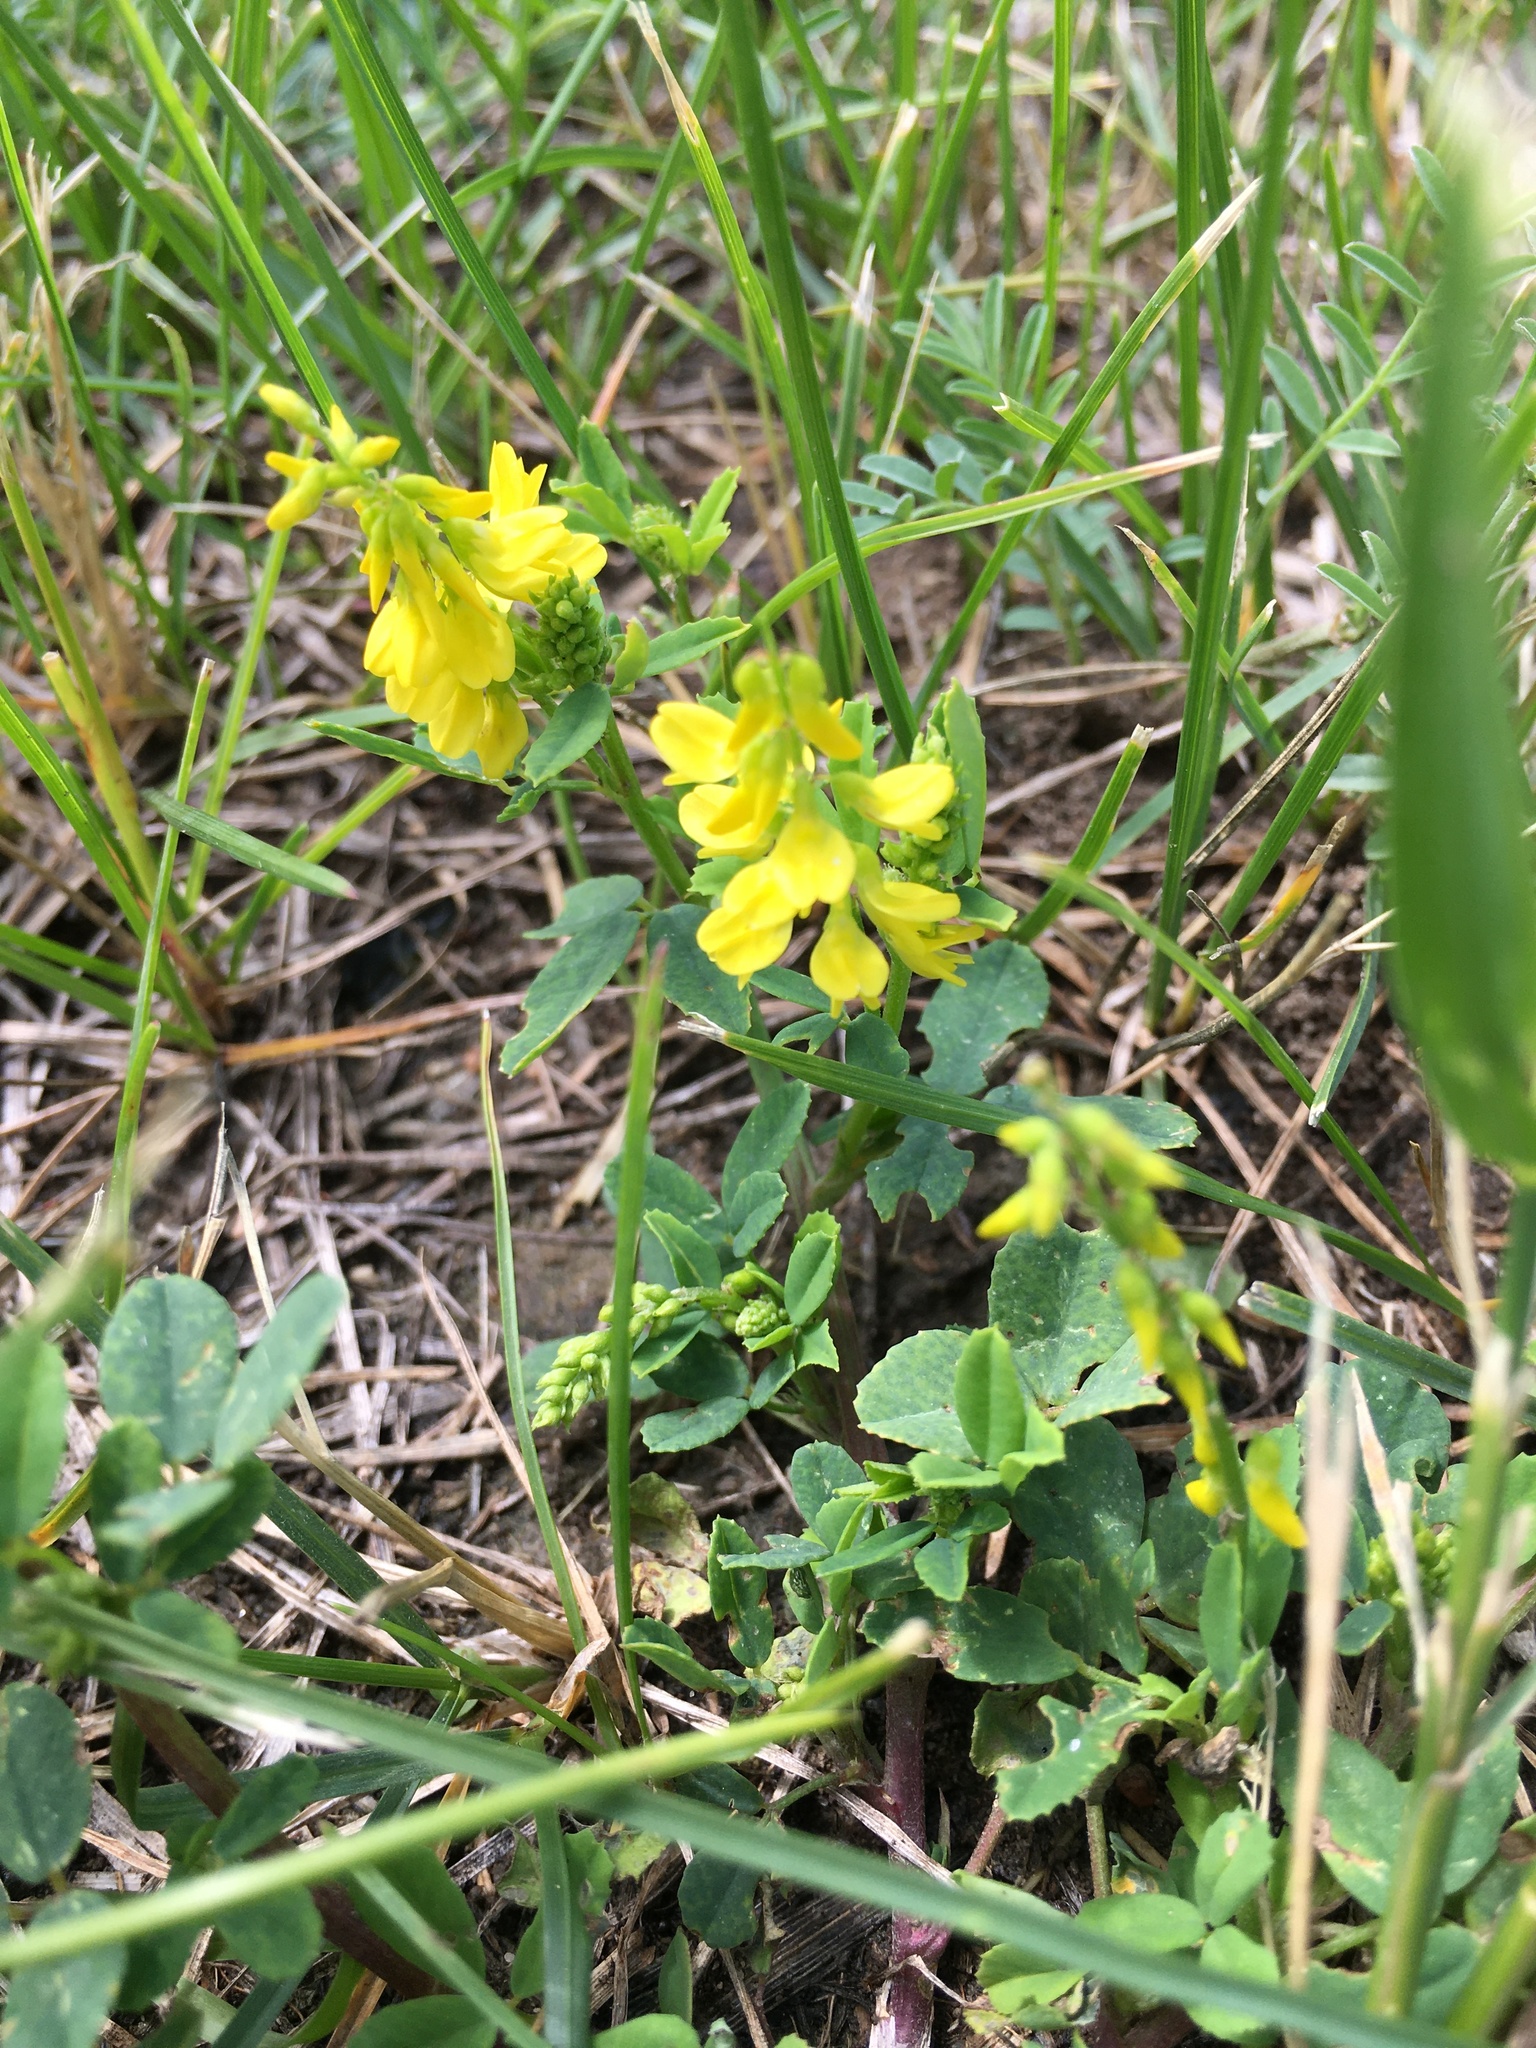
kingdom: Plantae
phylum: Tracheophyta
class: Magnoliopsida
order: Fabales
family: Fabaceae
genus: Melilotus
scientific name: Melilotus officinalis
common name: Sweetclover
